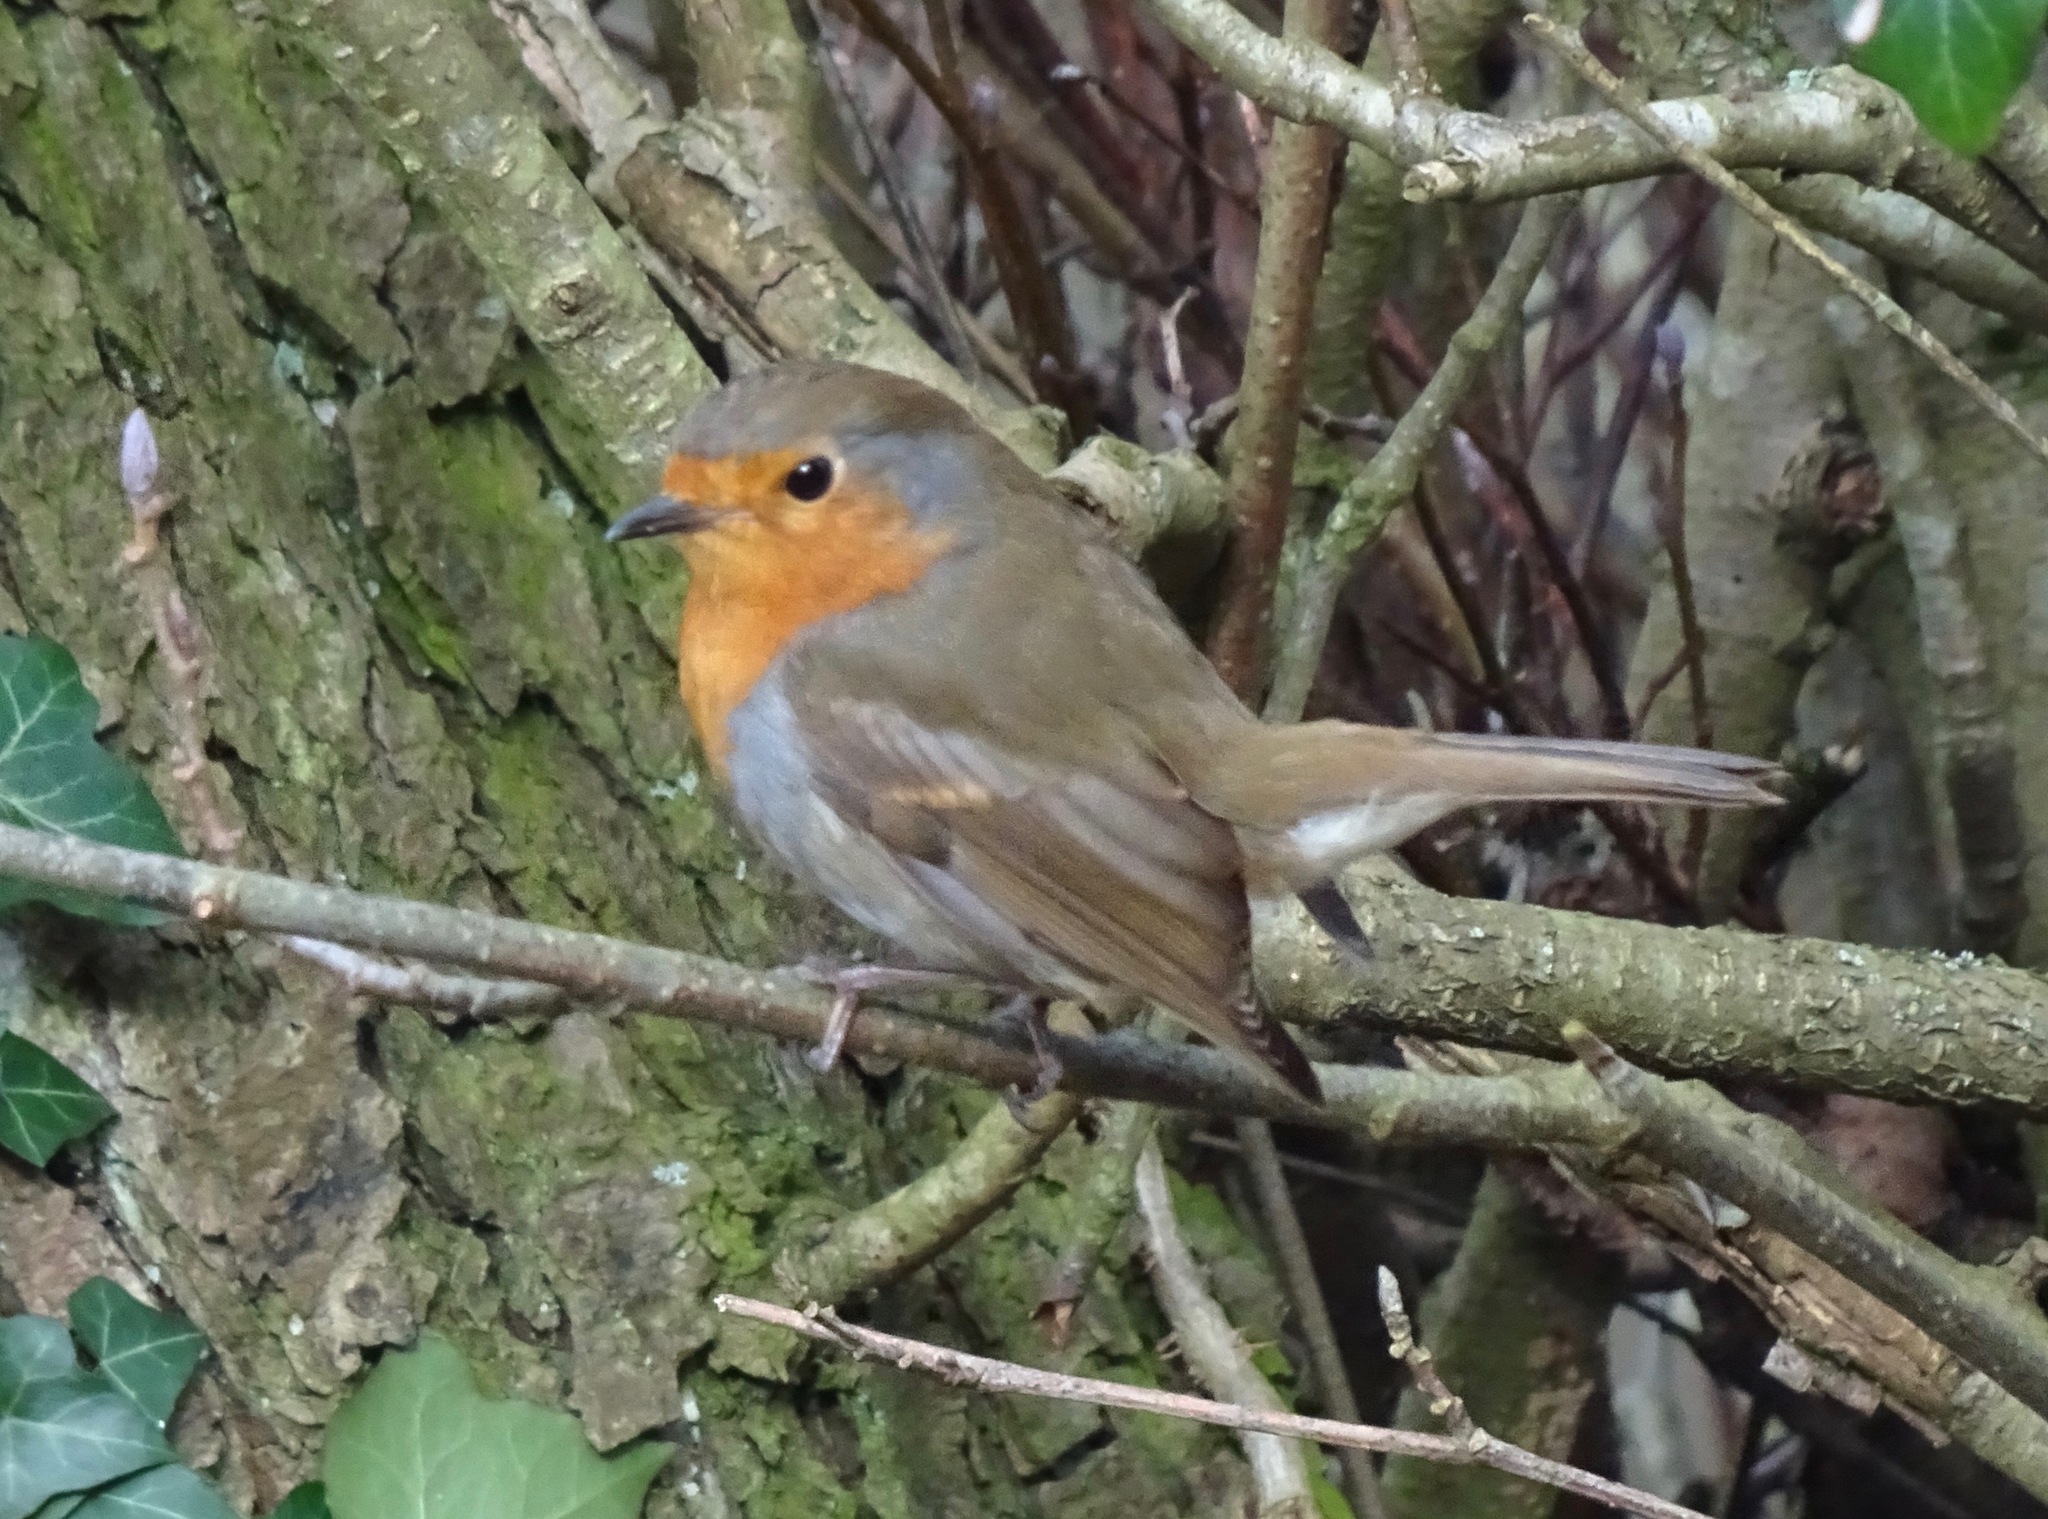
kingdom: Animalia
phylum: Chordata
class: Aves
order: Passeriformes
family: Muscicapidae
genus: Erithacus
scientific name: Erithacus rubecula
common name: European robin
